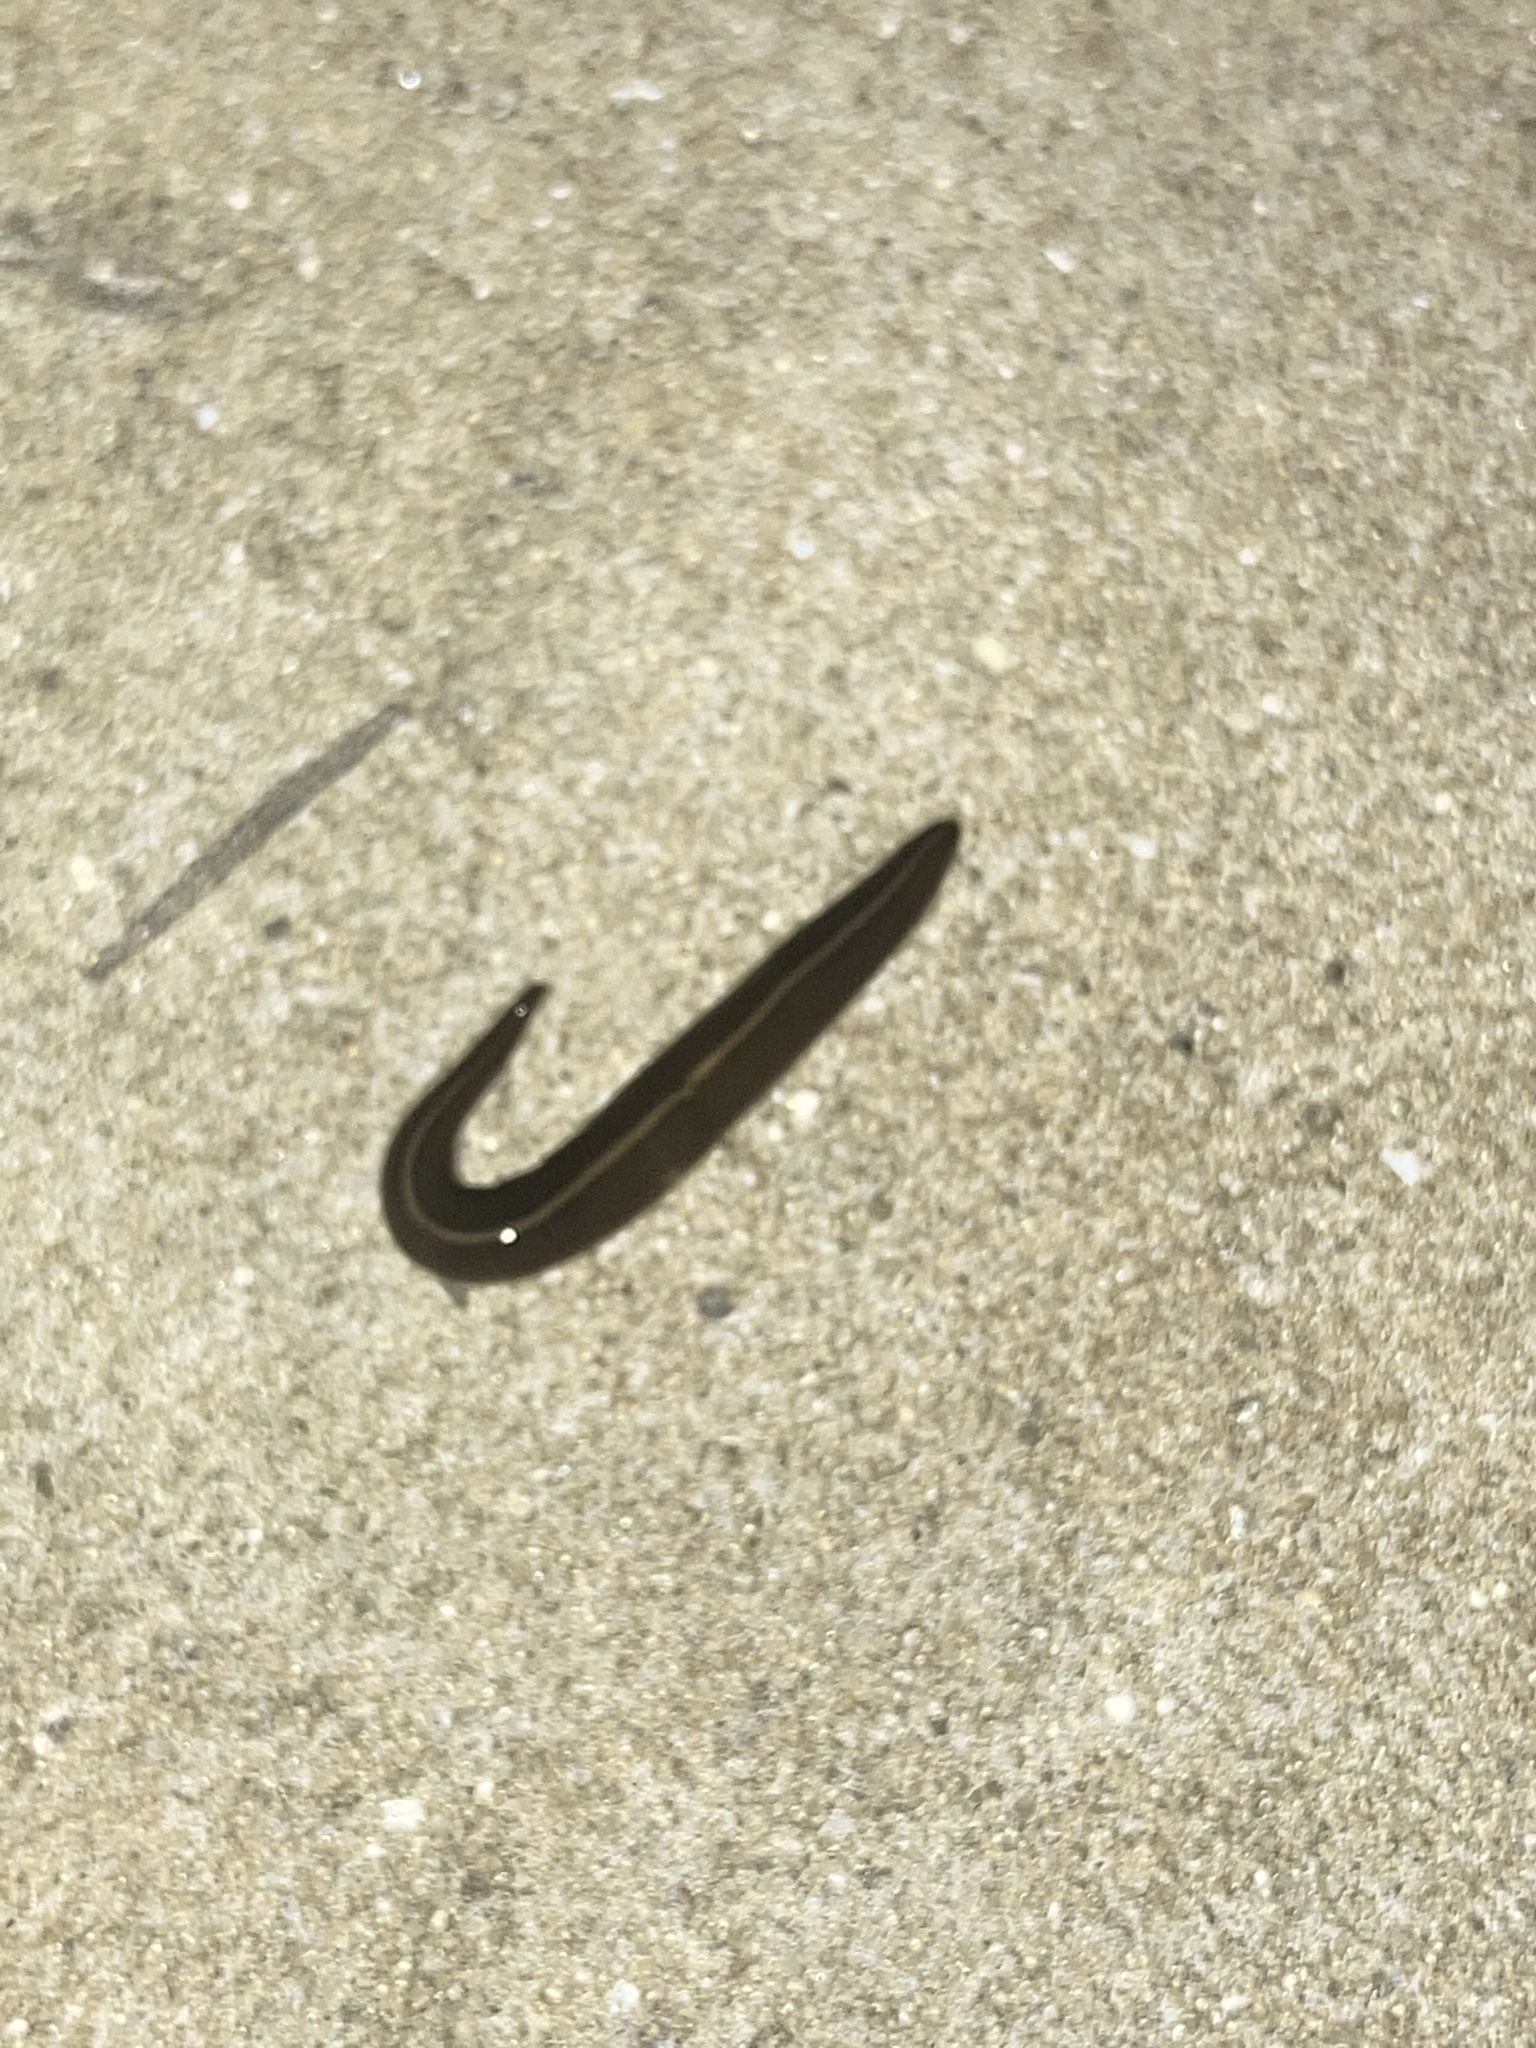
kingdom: Animalia
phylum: Platyhelminthes
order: Tricladida
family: Geoplanidae
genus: Platydemus
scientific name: Platydemus manokwari
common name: New guinea flatworm
